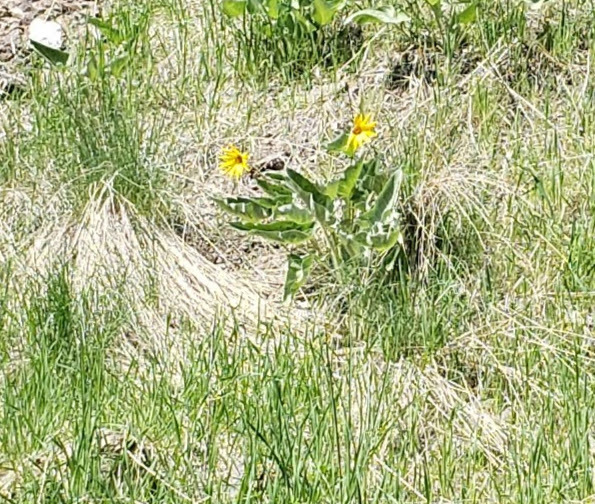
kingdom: Plantae
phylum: Tracheophyta
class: Magnoliopsida
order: Asterales
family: Asteraceae
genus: Wyethia
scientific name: Wyethia sagittata
